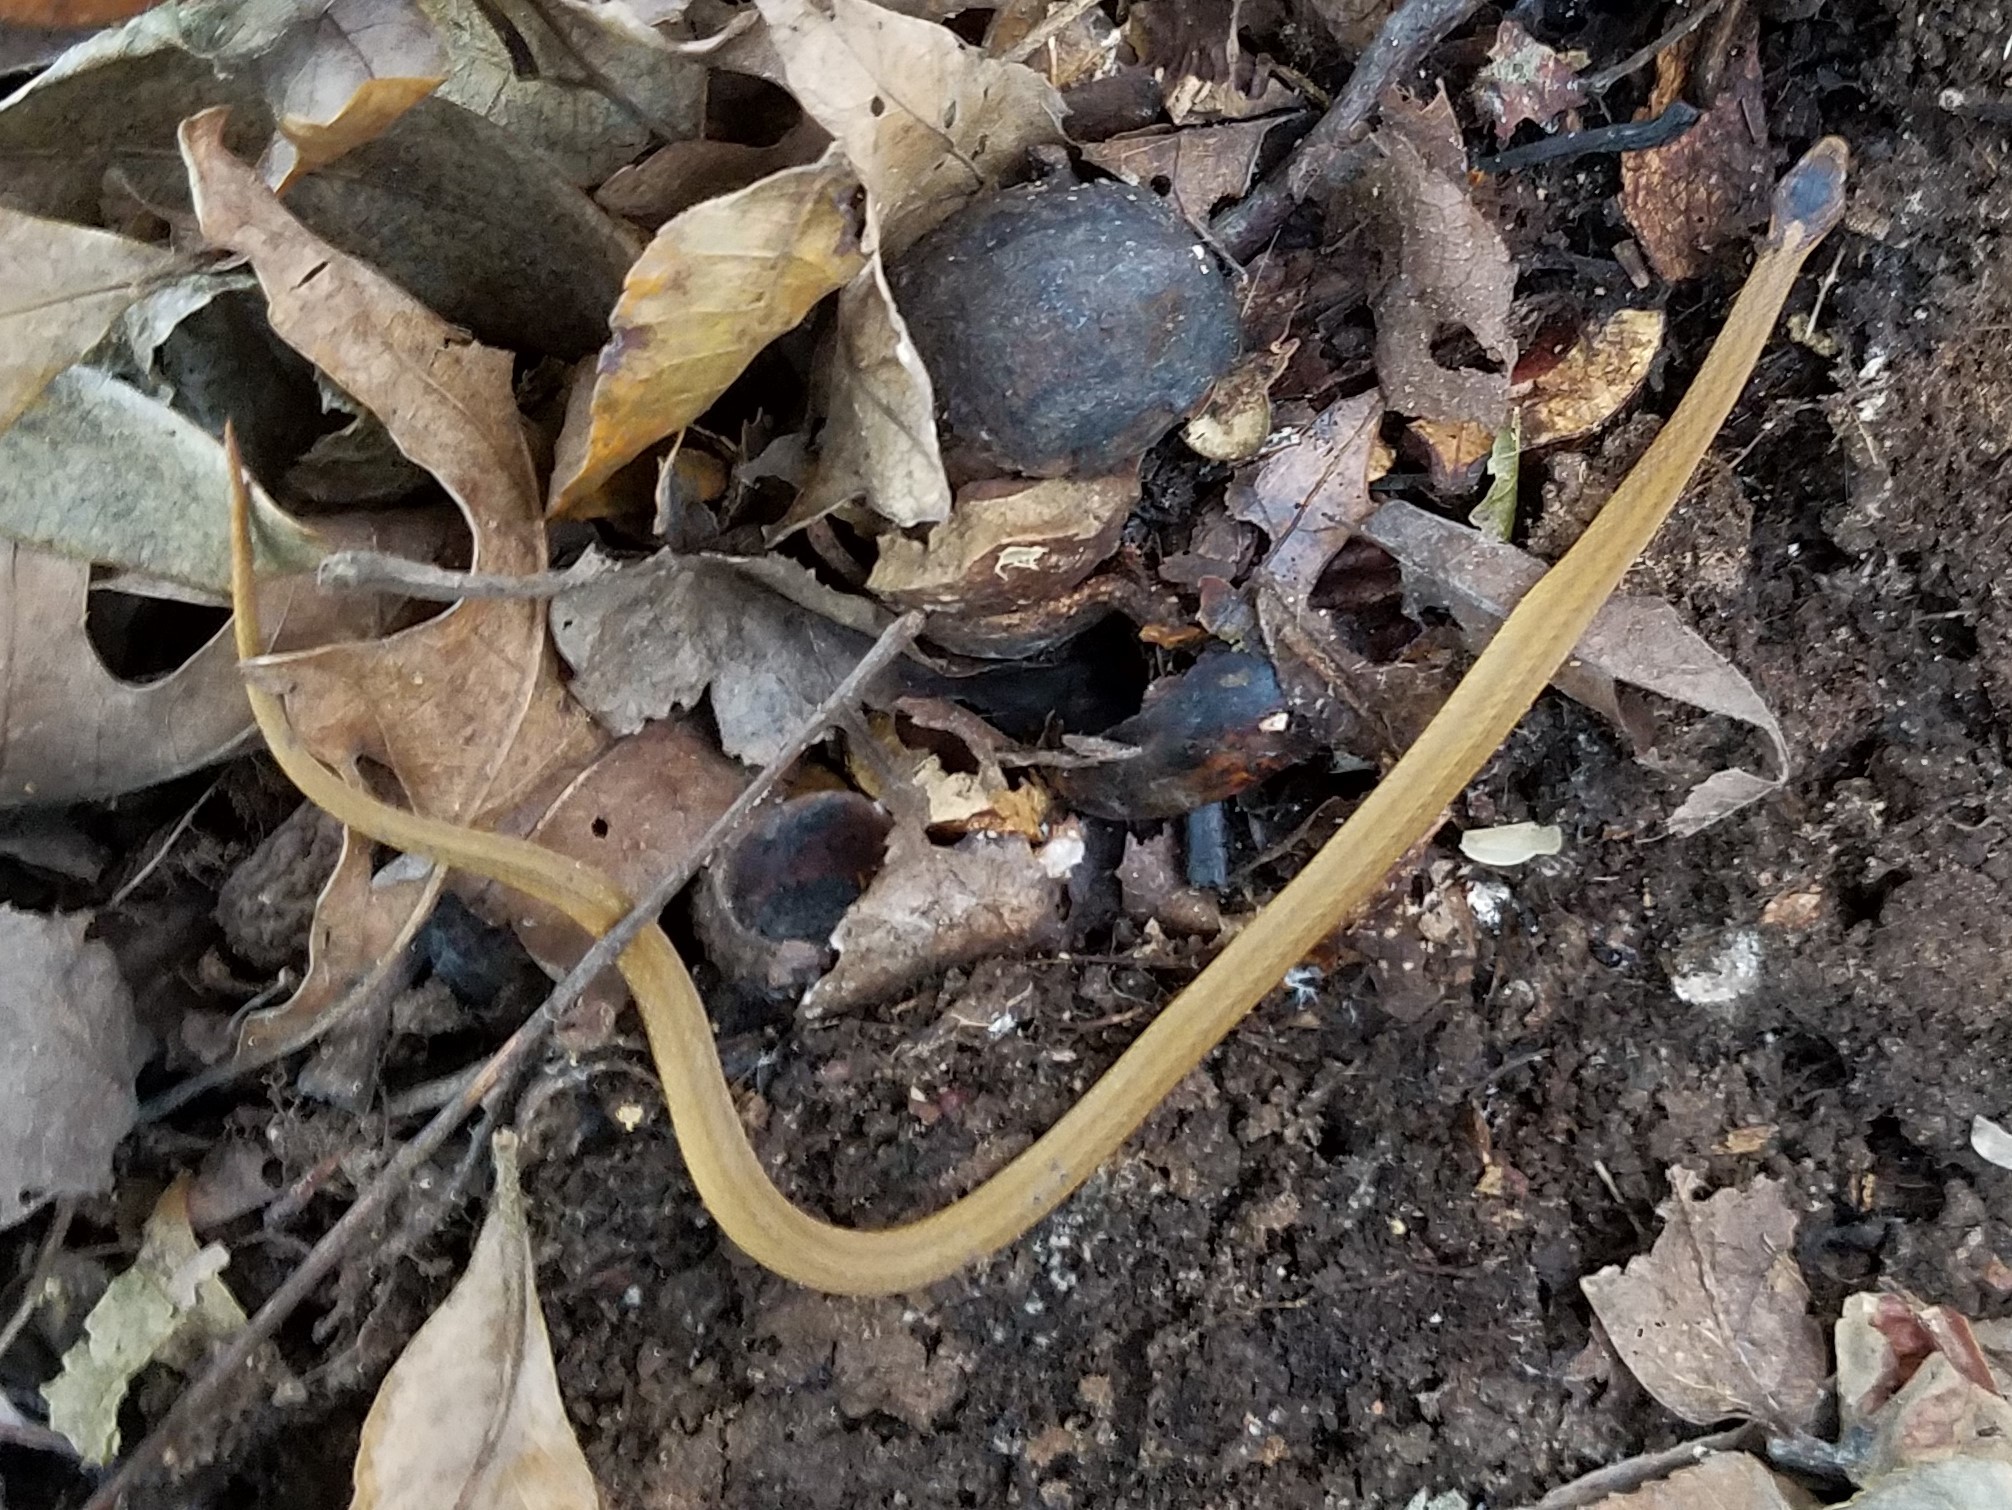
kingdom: Animalia
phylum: Chordata
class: Squamata
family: Colubridae
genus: Storeria
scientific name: Storeria occipitomaculata
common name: Redbelly snake
